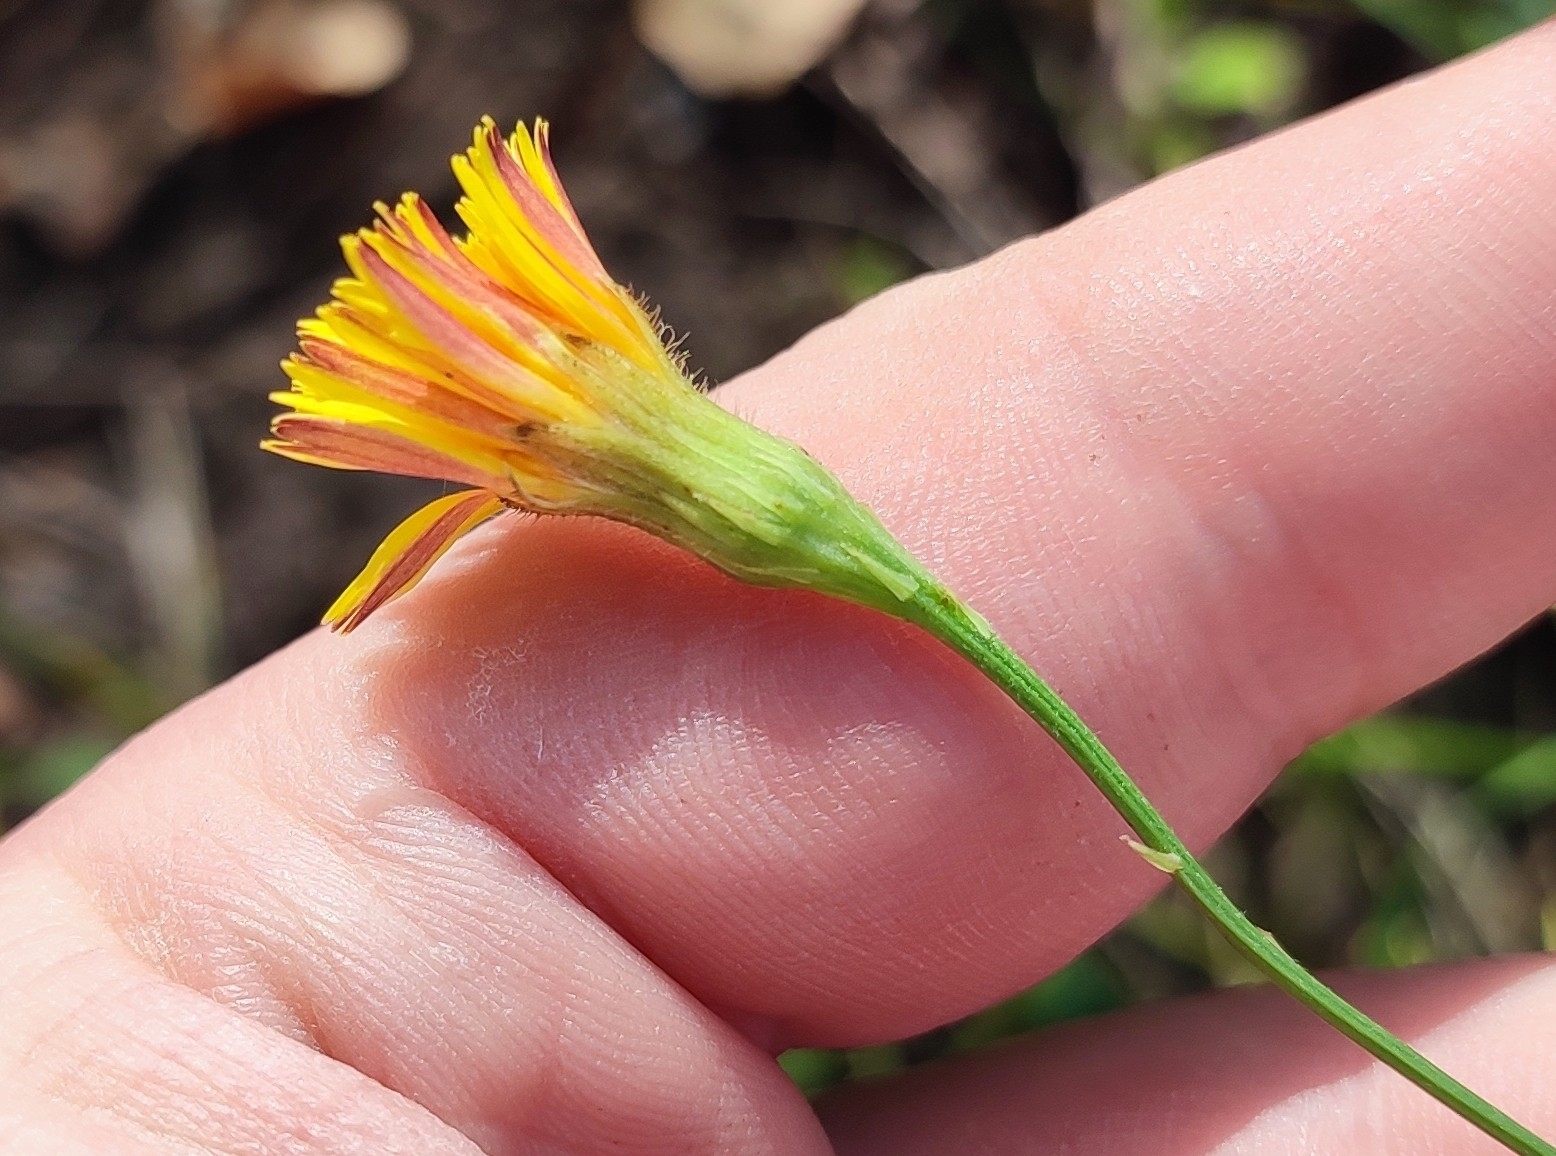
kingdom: Plantae
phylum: Tracheophyta
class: Magnoliopsida
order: Asterales
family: Asteraceae
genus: Scorzoneroides
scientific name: Scorzoneroides autumnalis
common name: Autumn hawkbit
